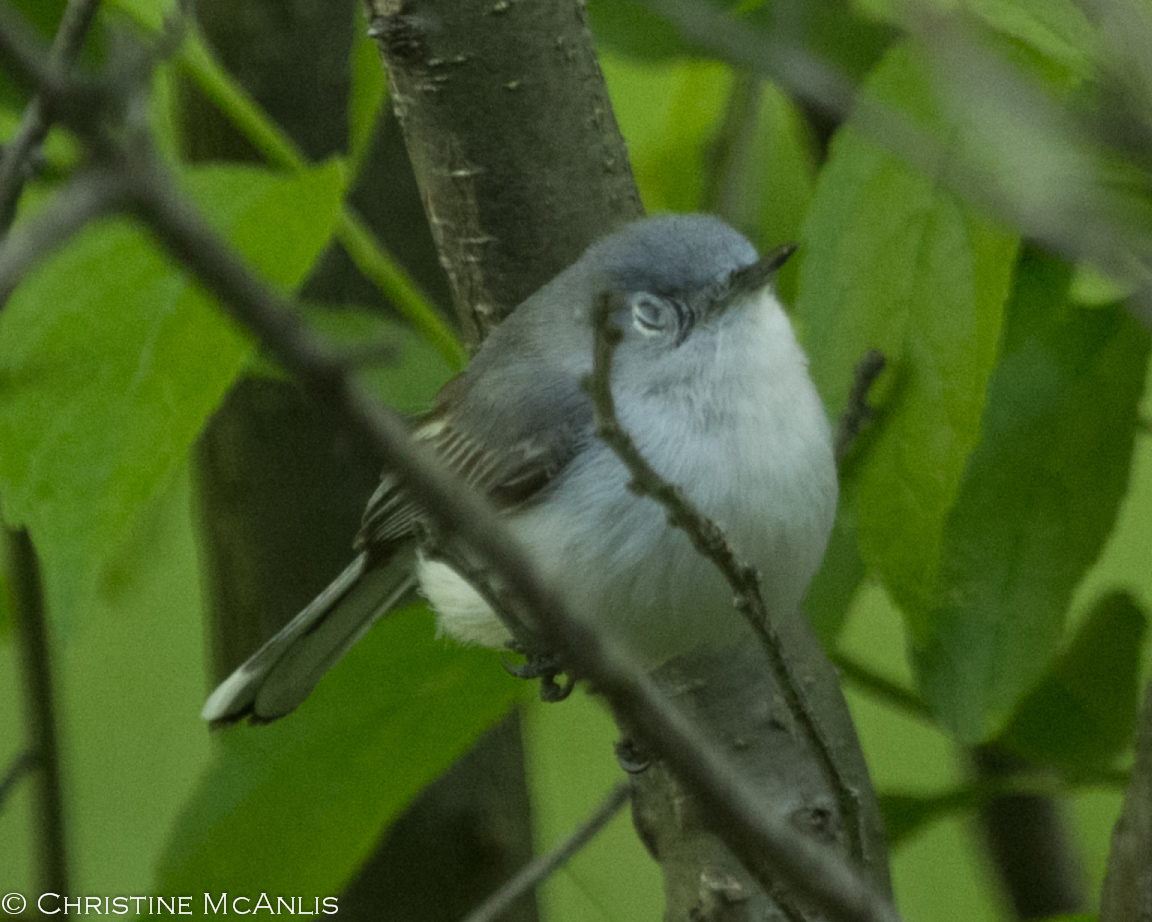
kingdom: Animalia
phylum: Chordata
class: Aves
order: Passeriformes
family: Polioptilidae
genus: Polioptila
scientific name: Polioptila caerulea
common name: Blue-gray gnatcatcher
